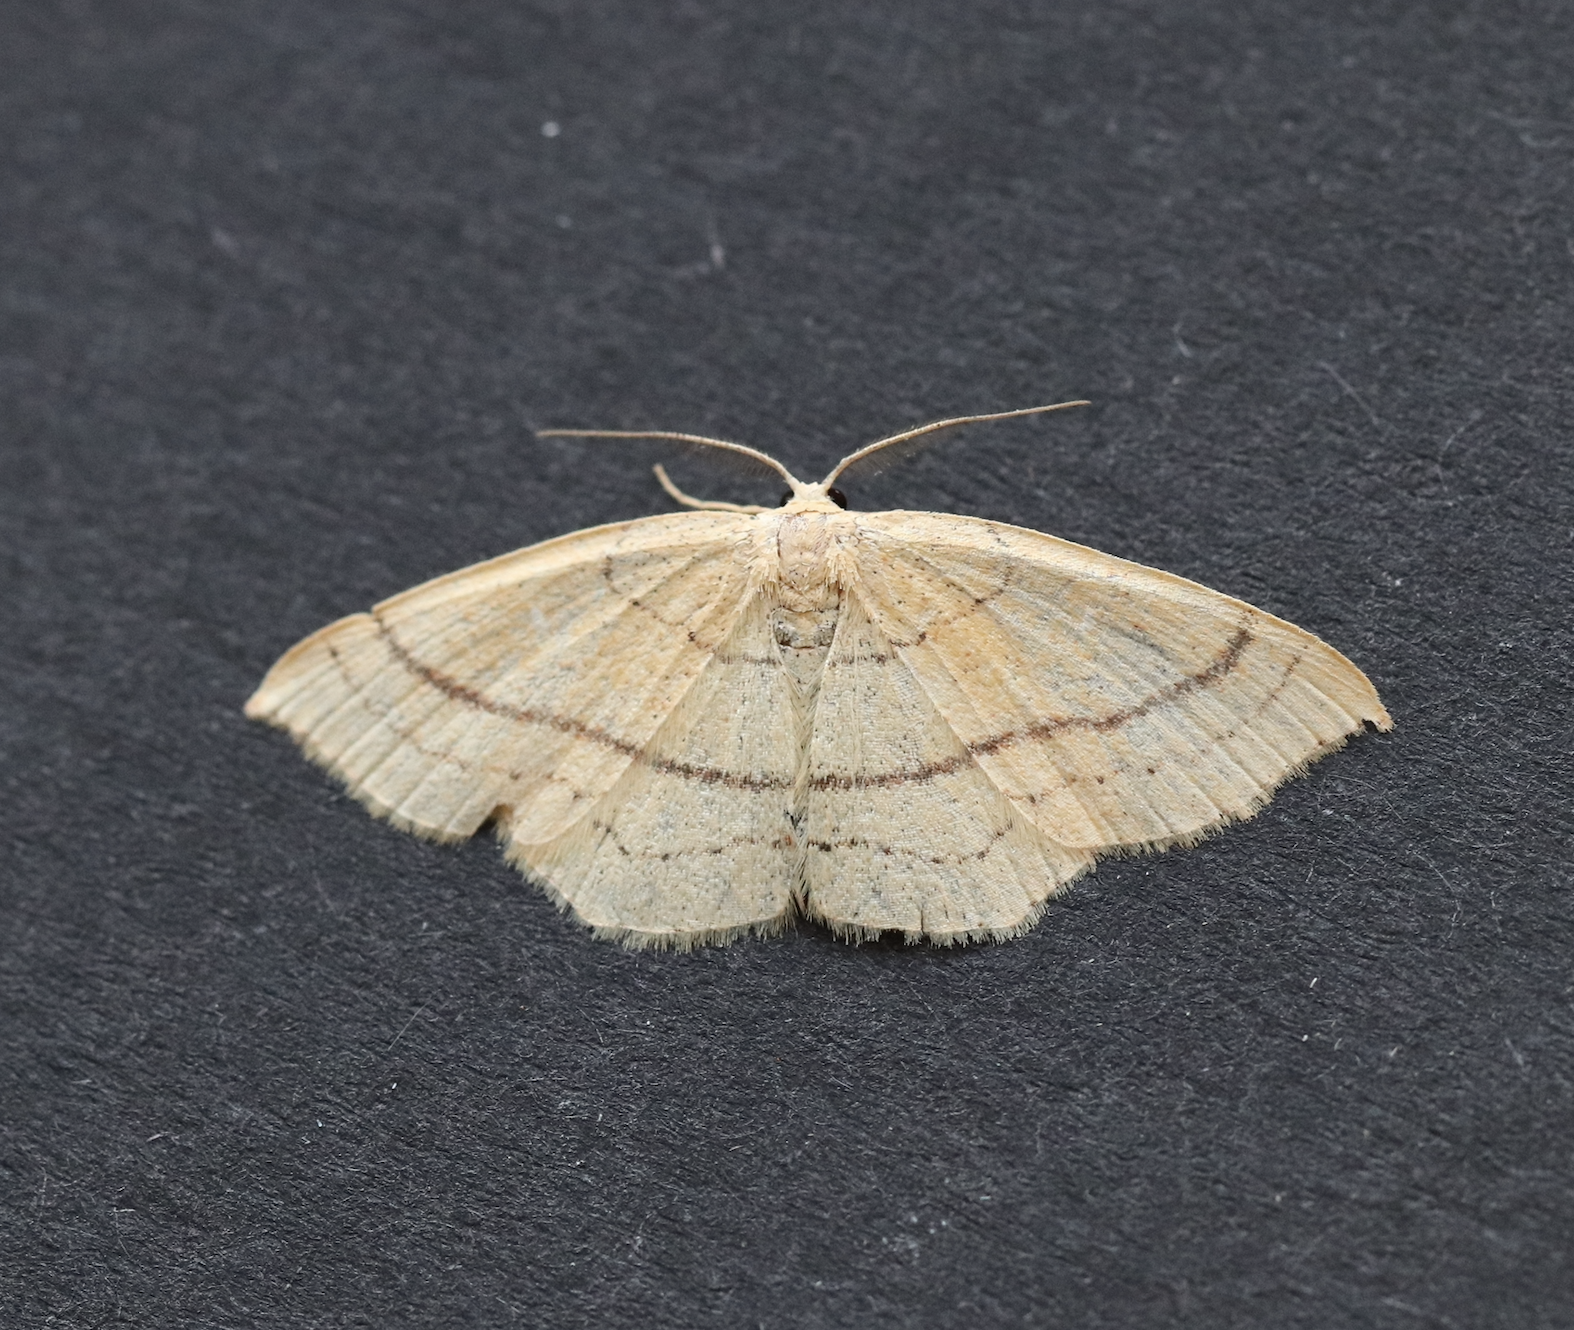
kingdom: Animalia
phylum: Arthropoda
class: Insecta
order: Lepidoptera
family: Geometridae
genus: Cyclophora
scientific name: Cyclophora linearia
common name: Clay triple-lines
